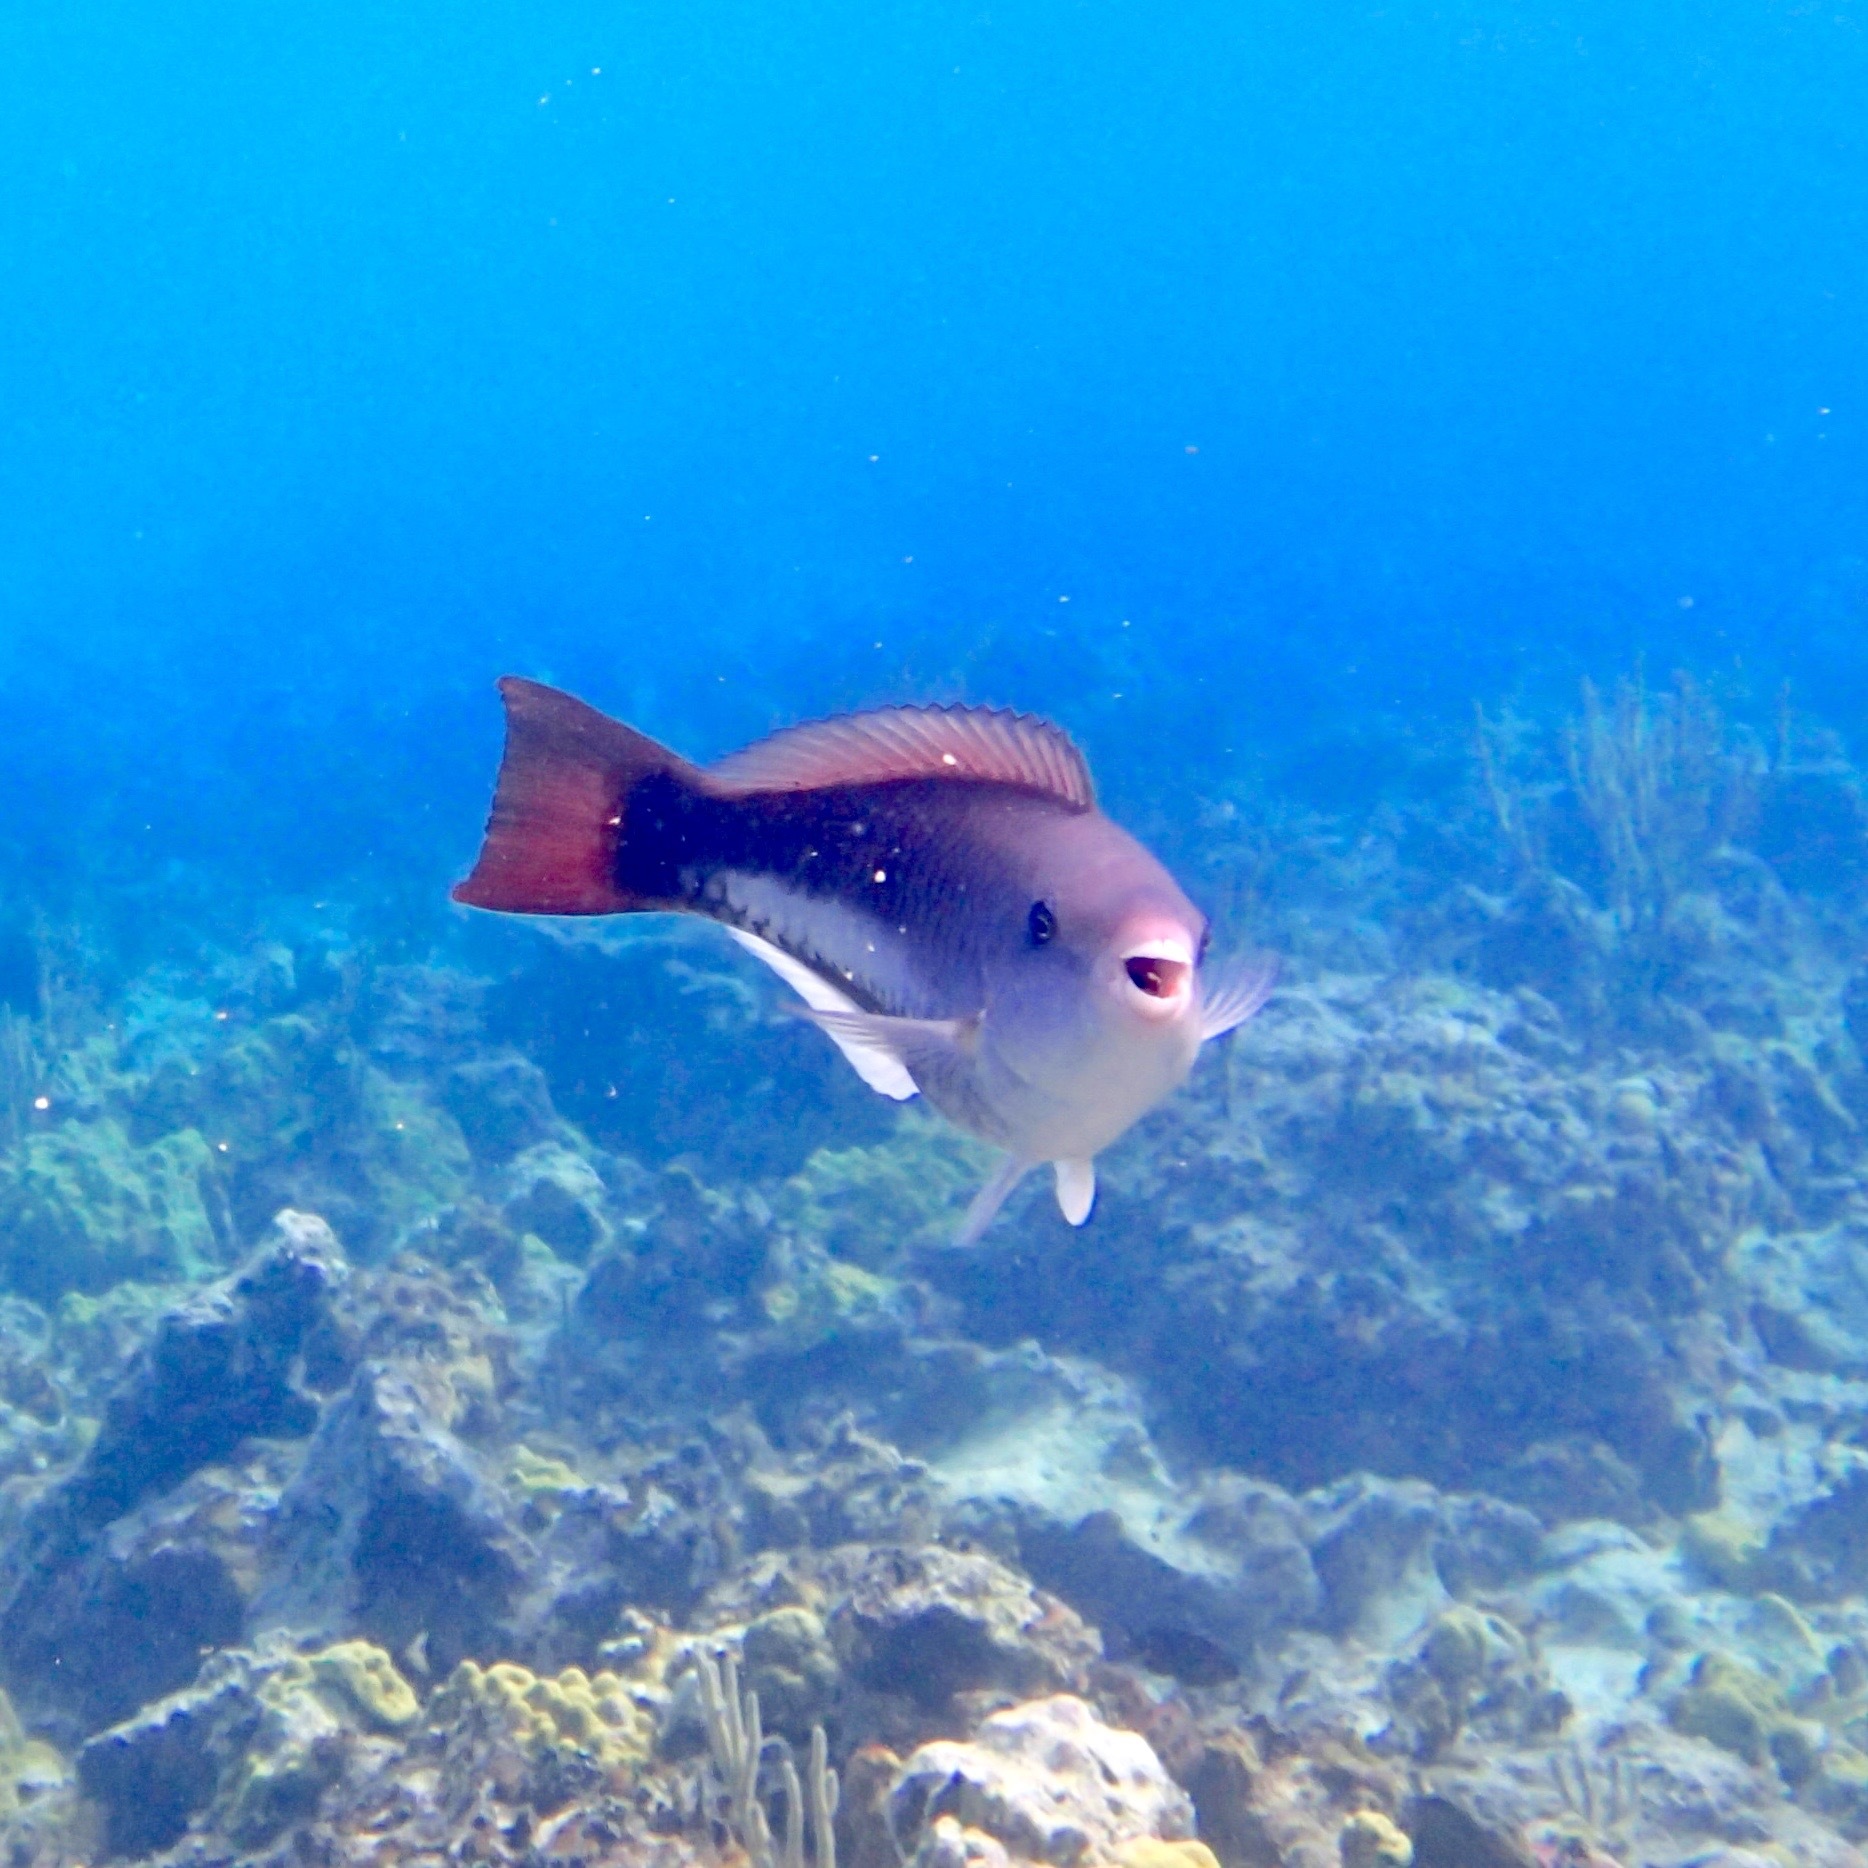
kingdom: Animalia
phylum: Chordata
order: Perciformes
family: Scaridae
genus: Scarus
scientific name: Scarus vetula
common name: Queen parrotfish
